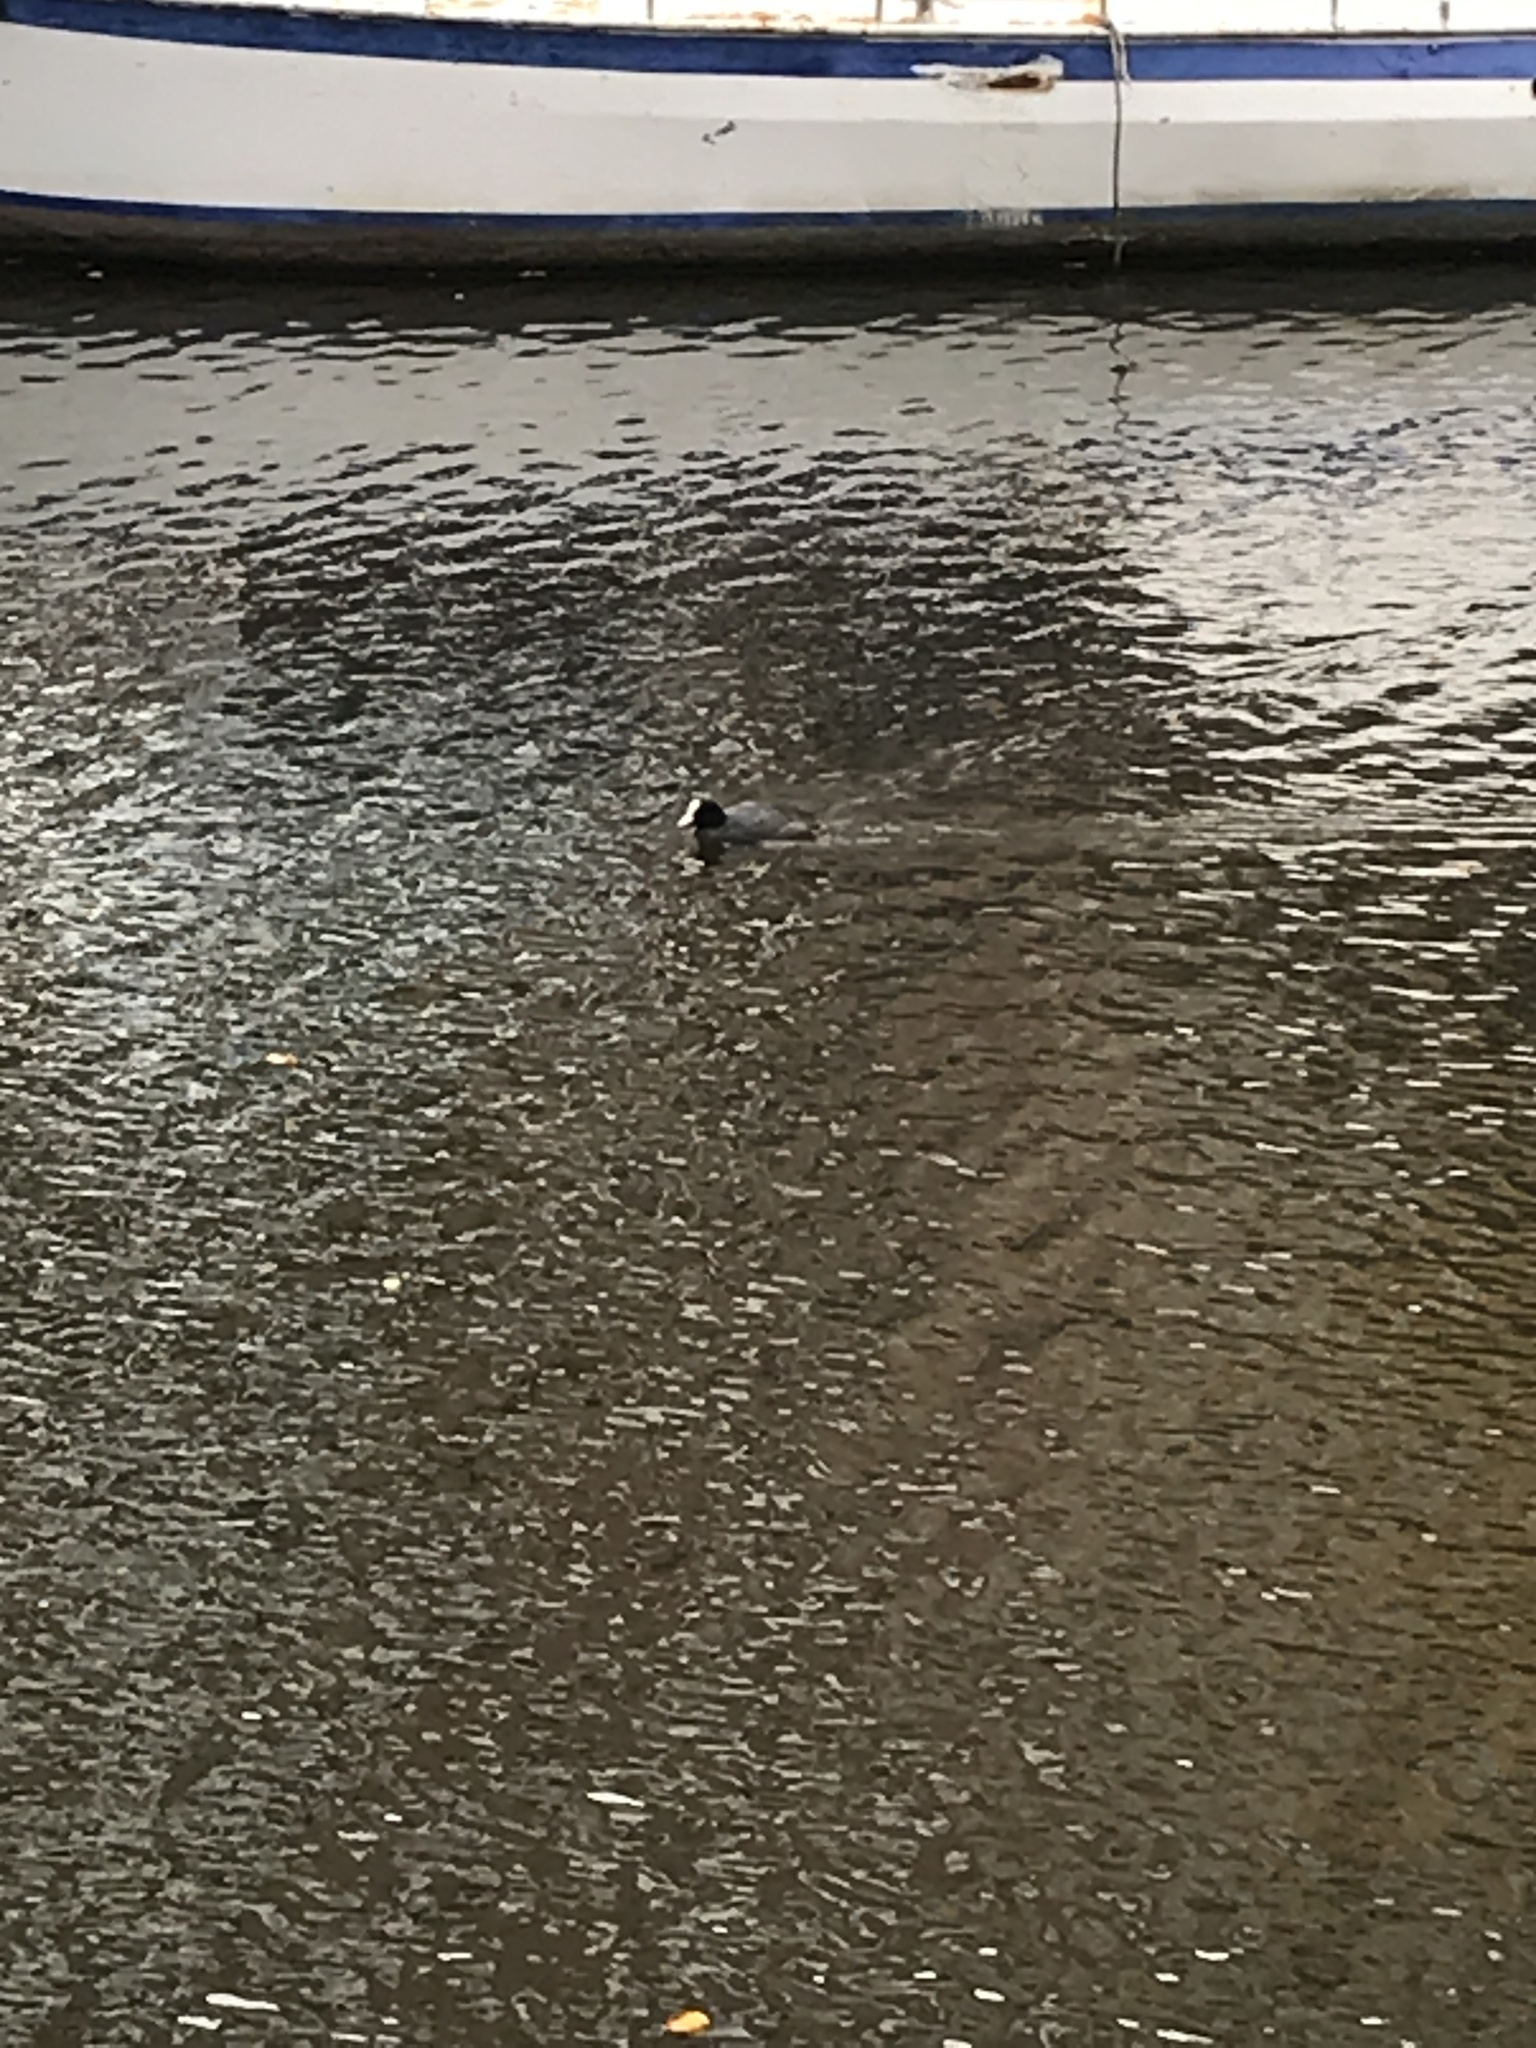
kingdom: Animalia
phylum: Chordata
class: Aves
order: Gruiformes
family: Rallidae
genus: Fulica
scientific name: Fulica atra
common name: Eurasian coot
